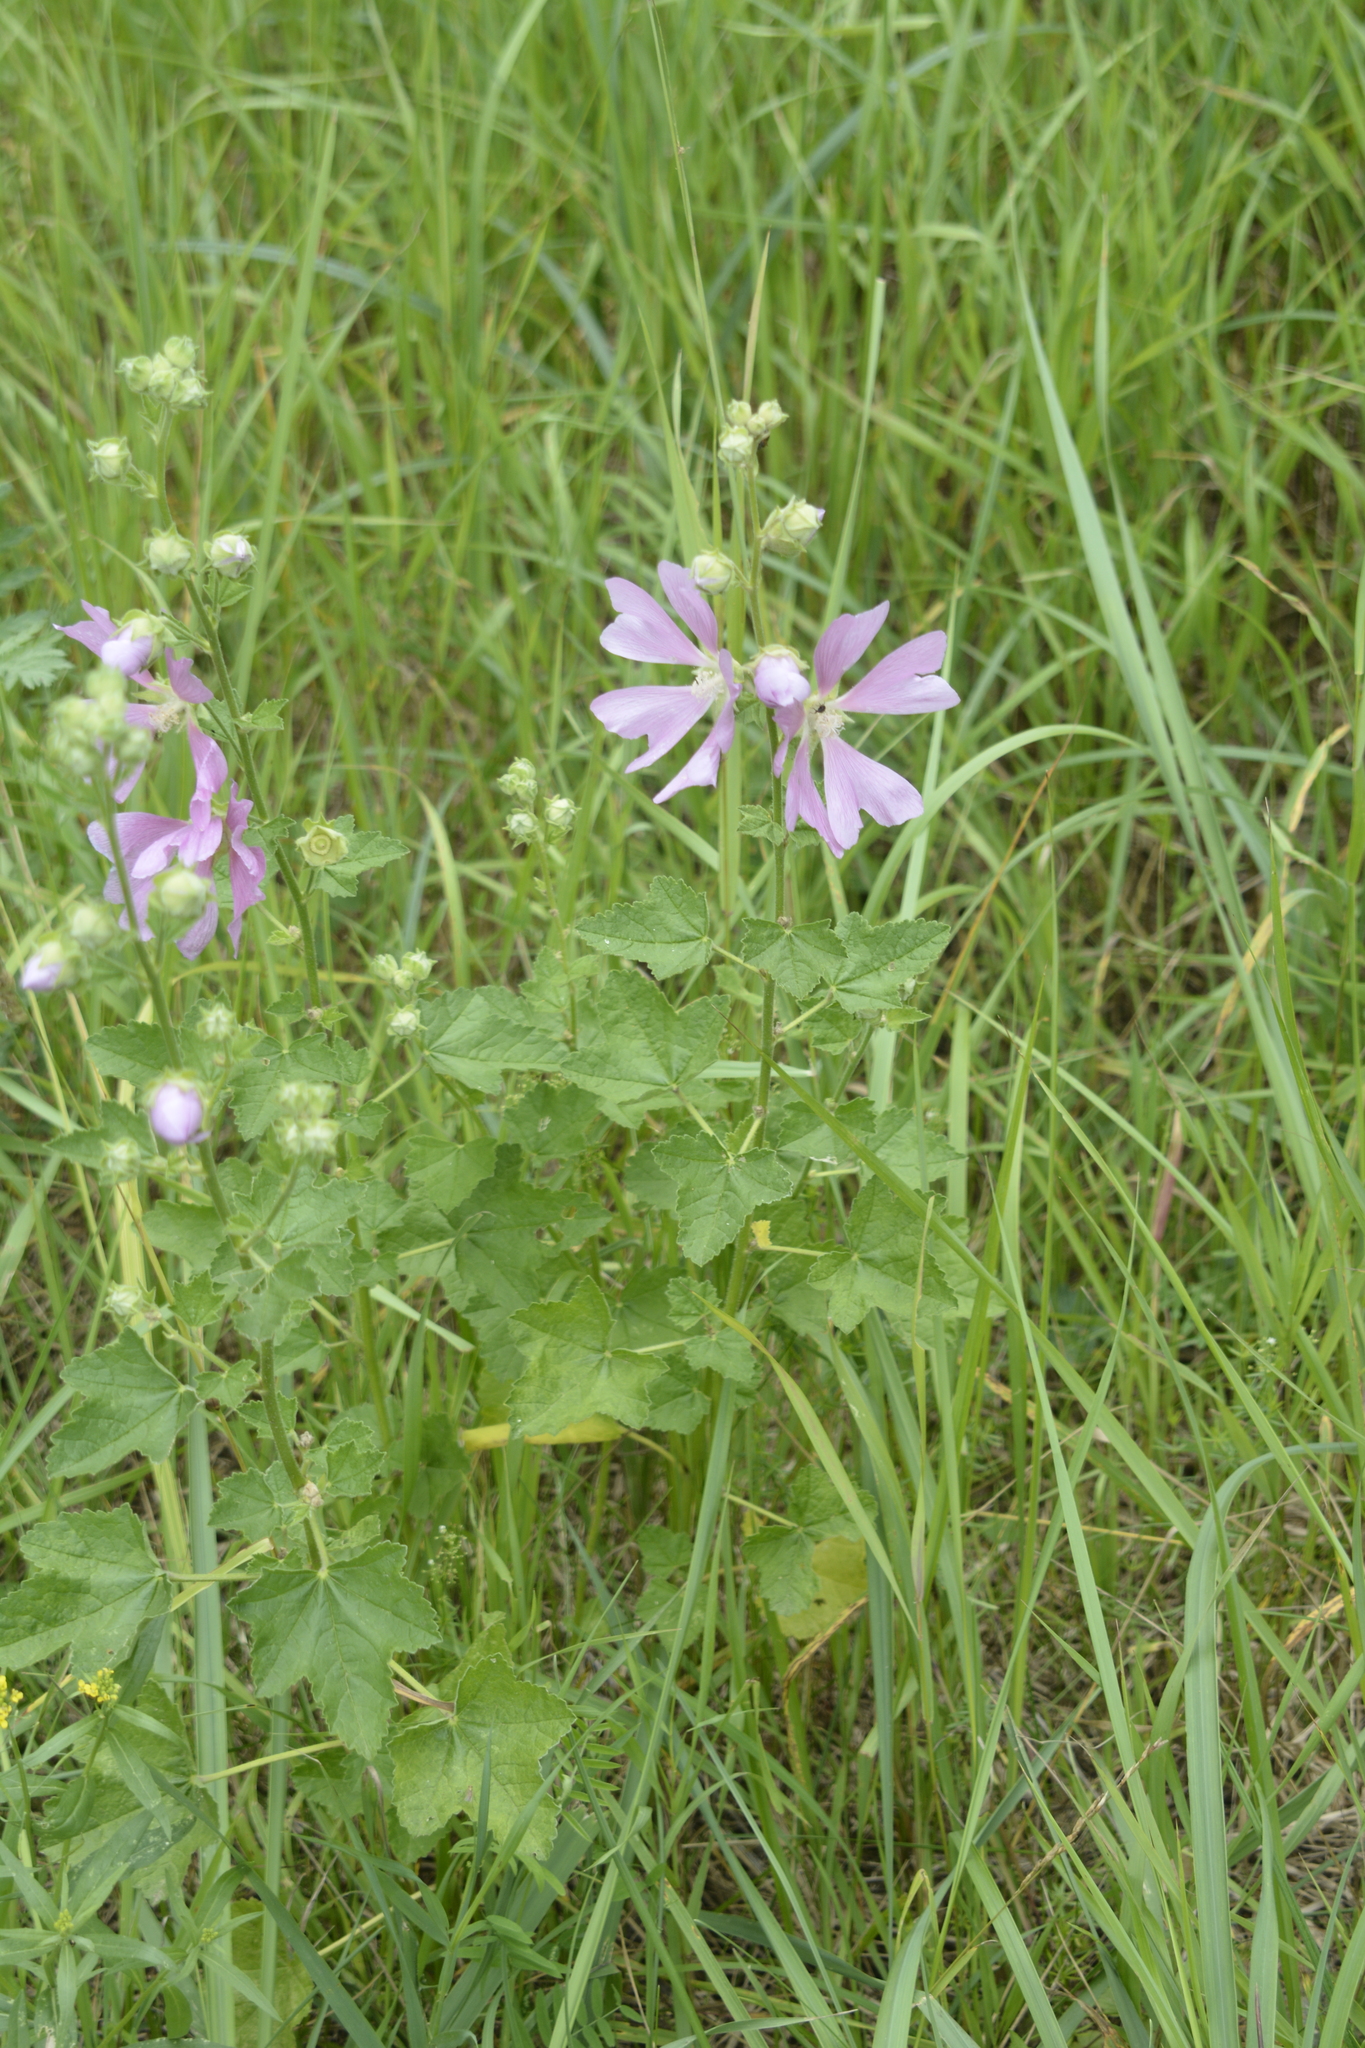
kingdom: Plantae
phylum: Tracheophyta
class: Magnoliopsida
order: Malvales
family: Malvaceae
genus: Malva
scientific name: Malva thuringiaca
